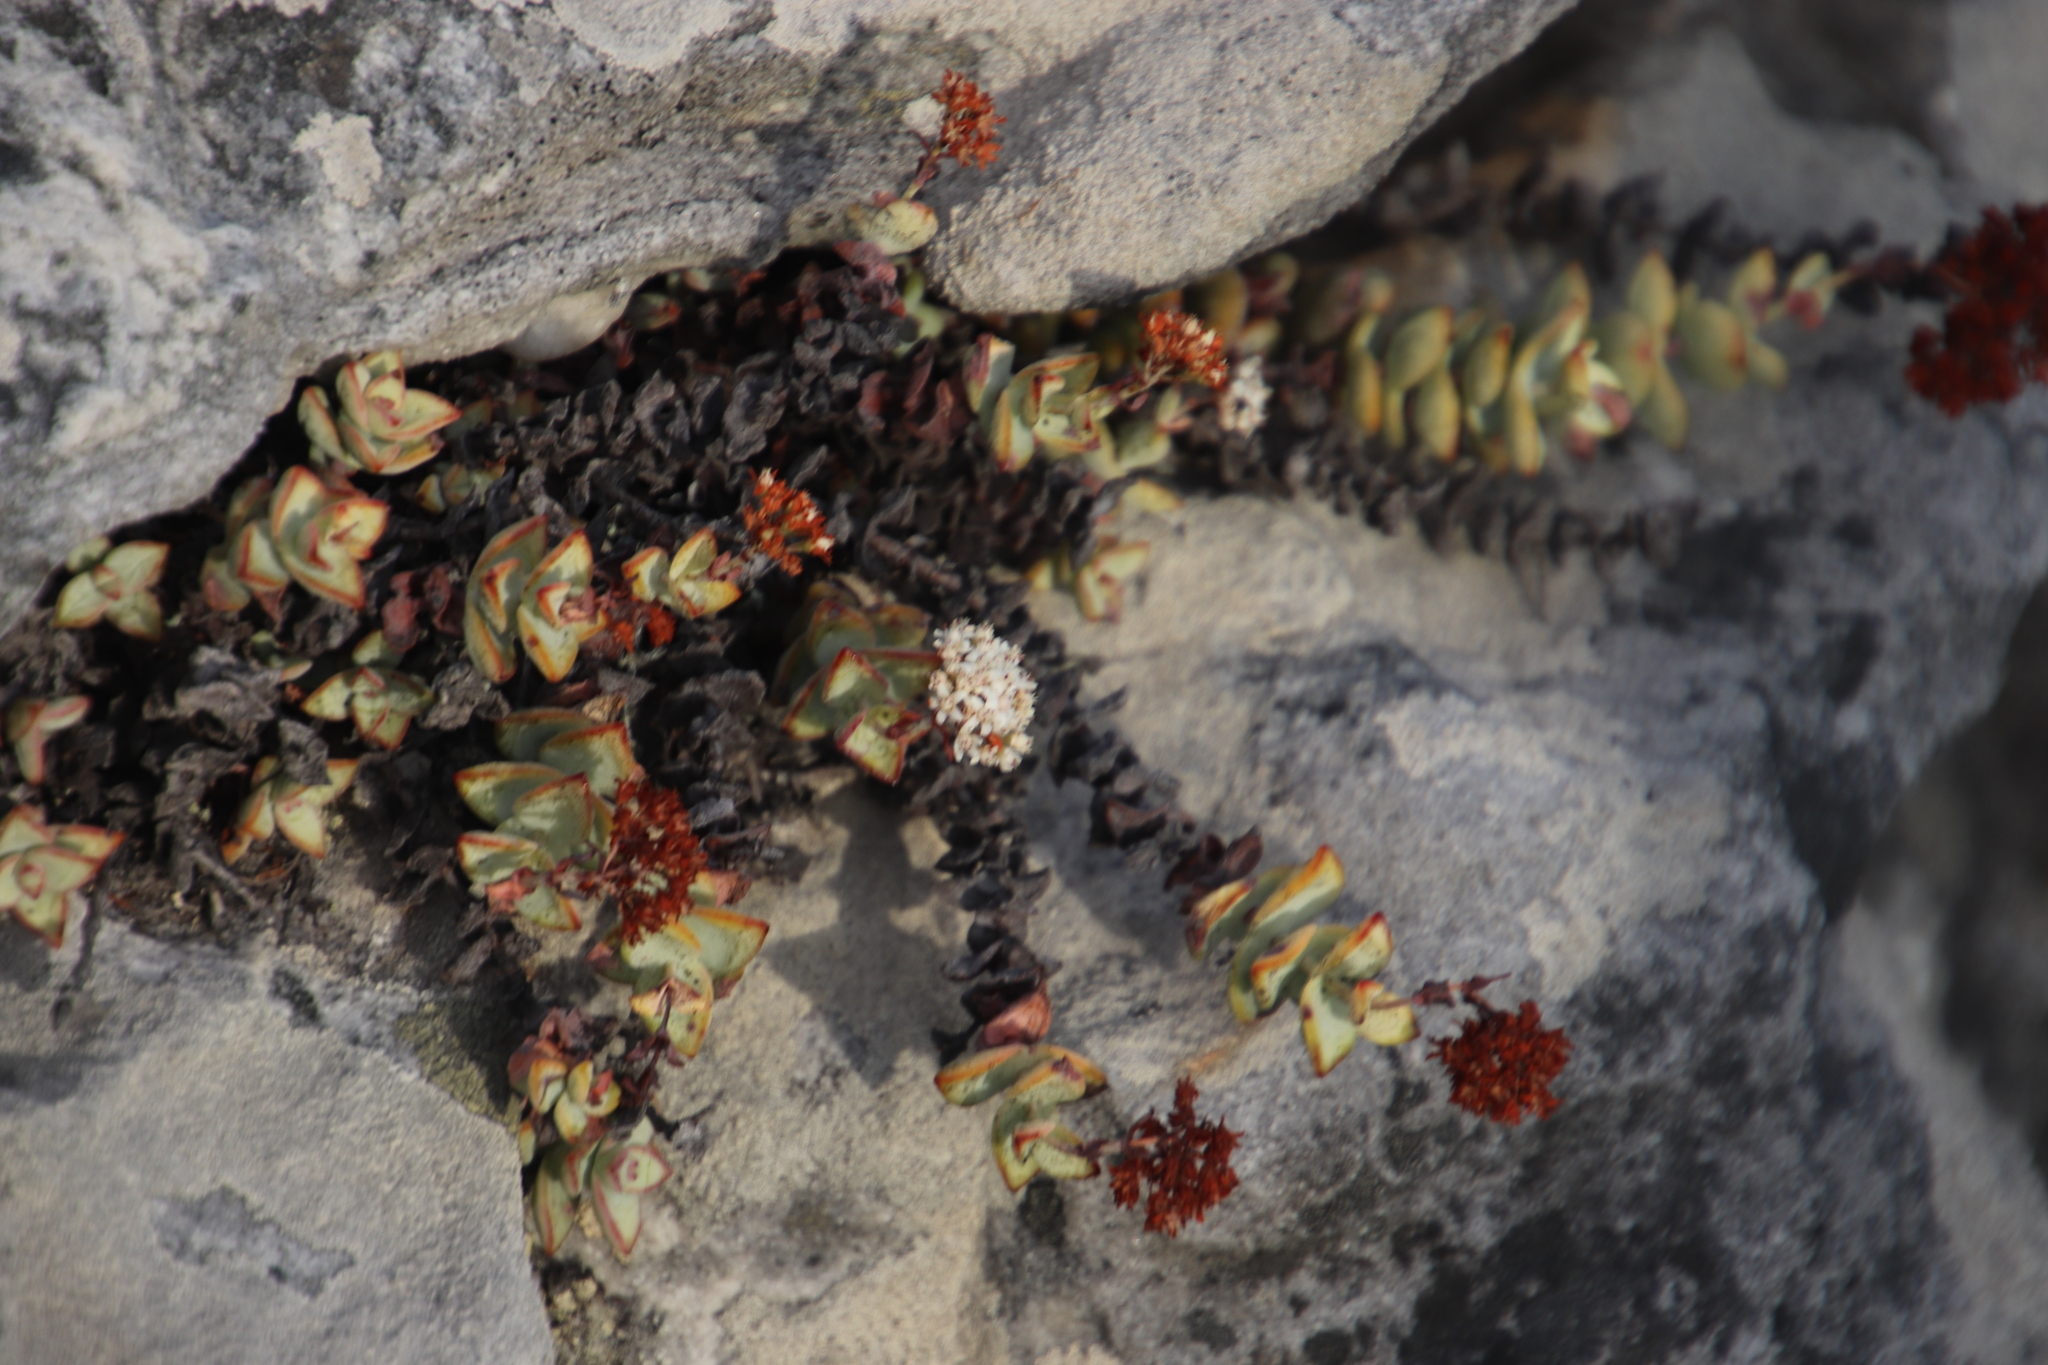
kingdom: Plantae
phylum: Tracheophyta
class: Magnoliopsida
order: Saxifragales
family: Crassulaceae
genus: Crassula
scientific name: Crassula rupestris
